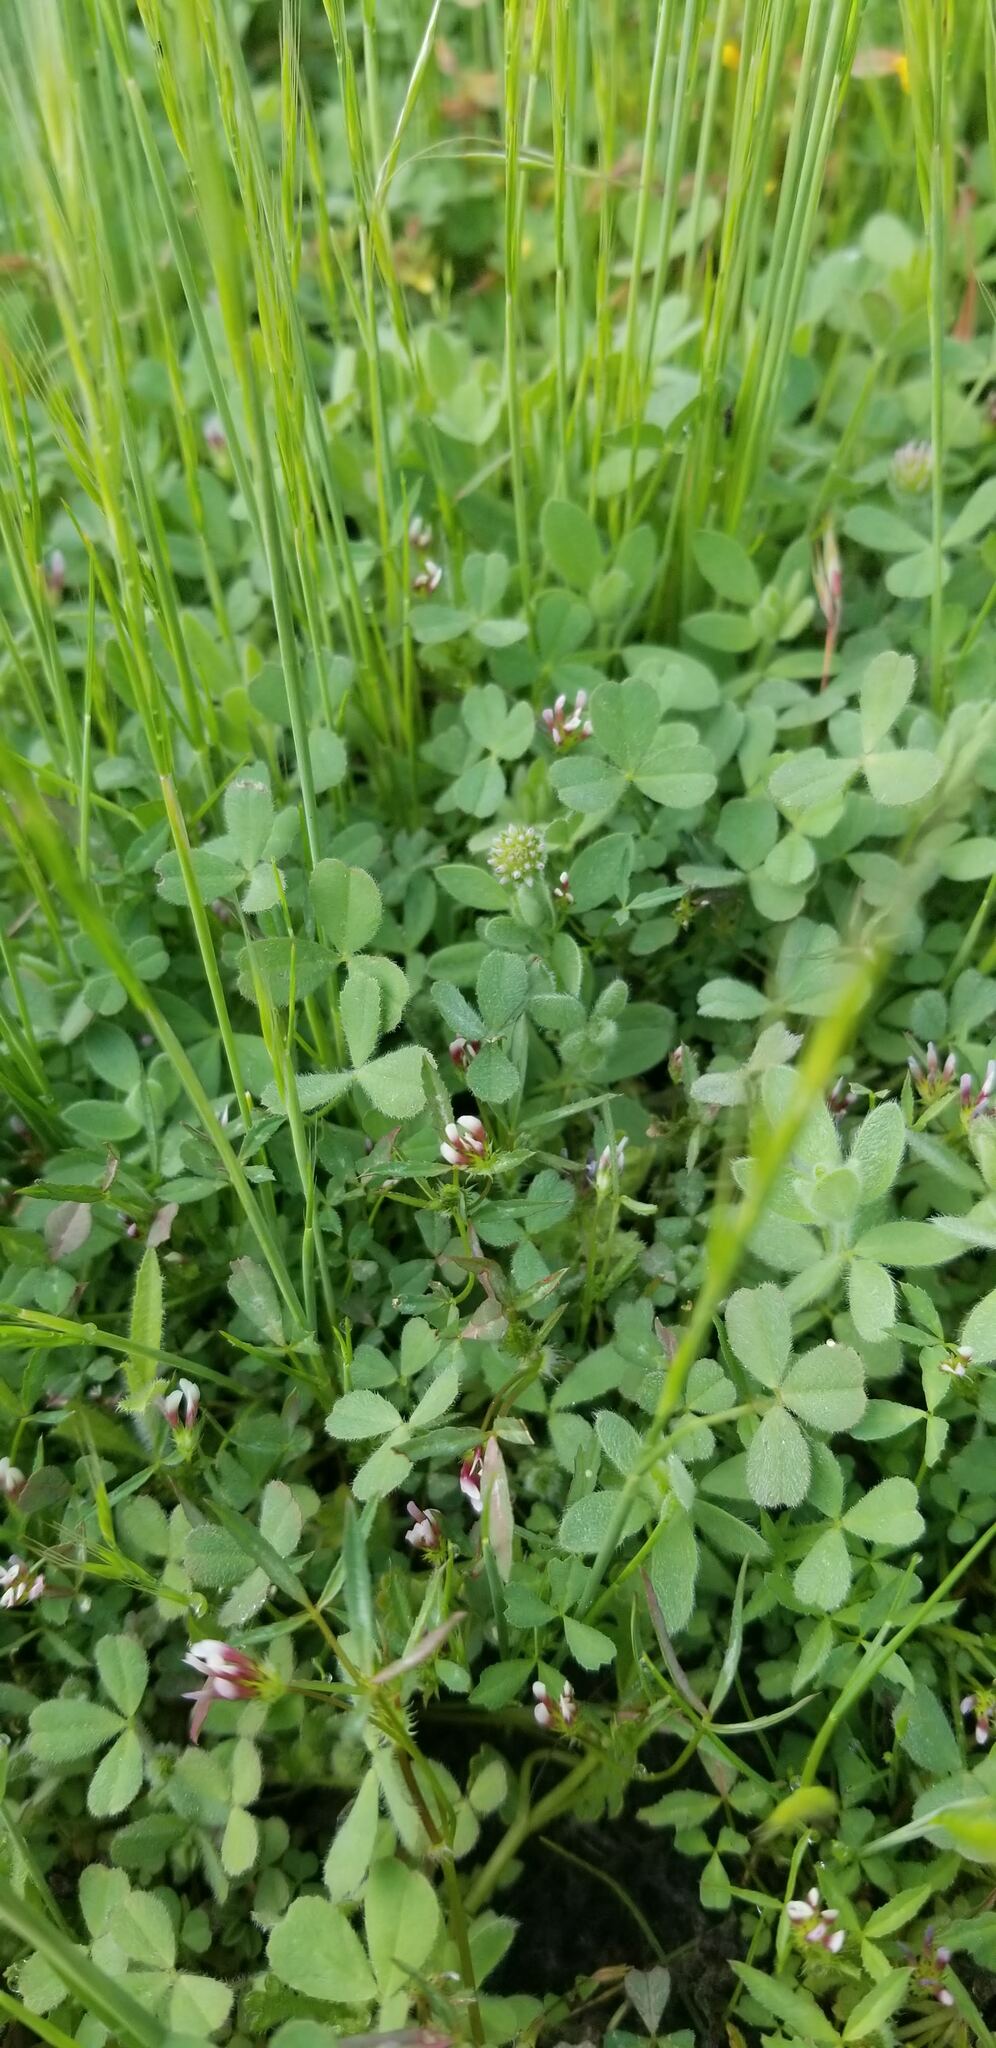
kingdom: Plantae
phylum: Tracheophyta
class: Magnoliopsida
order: Fabales
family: Fabaceae
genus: Trifolium
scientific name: Trifolium variegatum
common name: Whitetip clover
